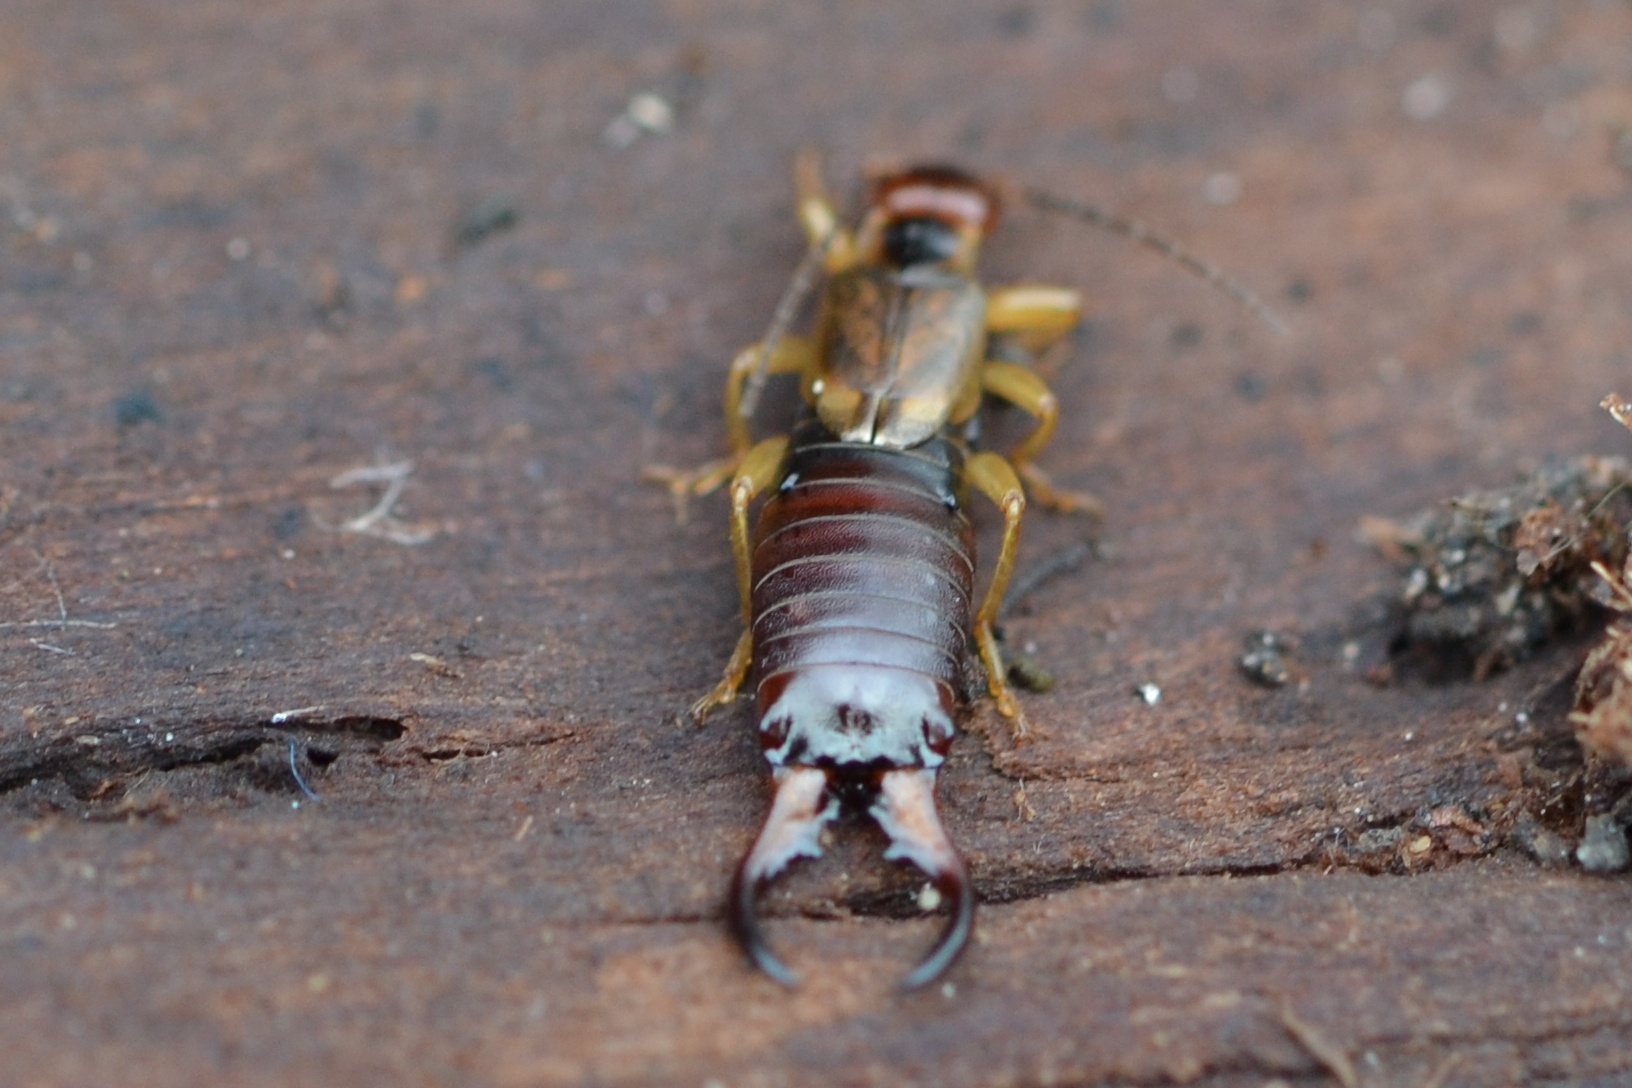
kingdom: Animalia
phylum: Arthropoda
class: Insecta
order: Dermaptera
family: Forficulidae
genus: Forficula
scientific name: Forficula auricularia
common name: European earwig
